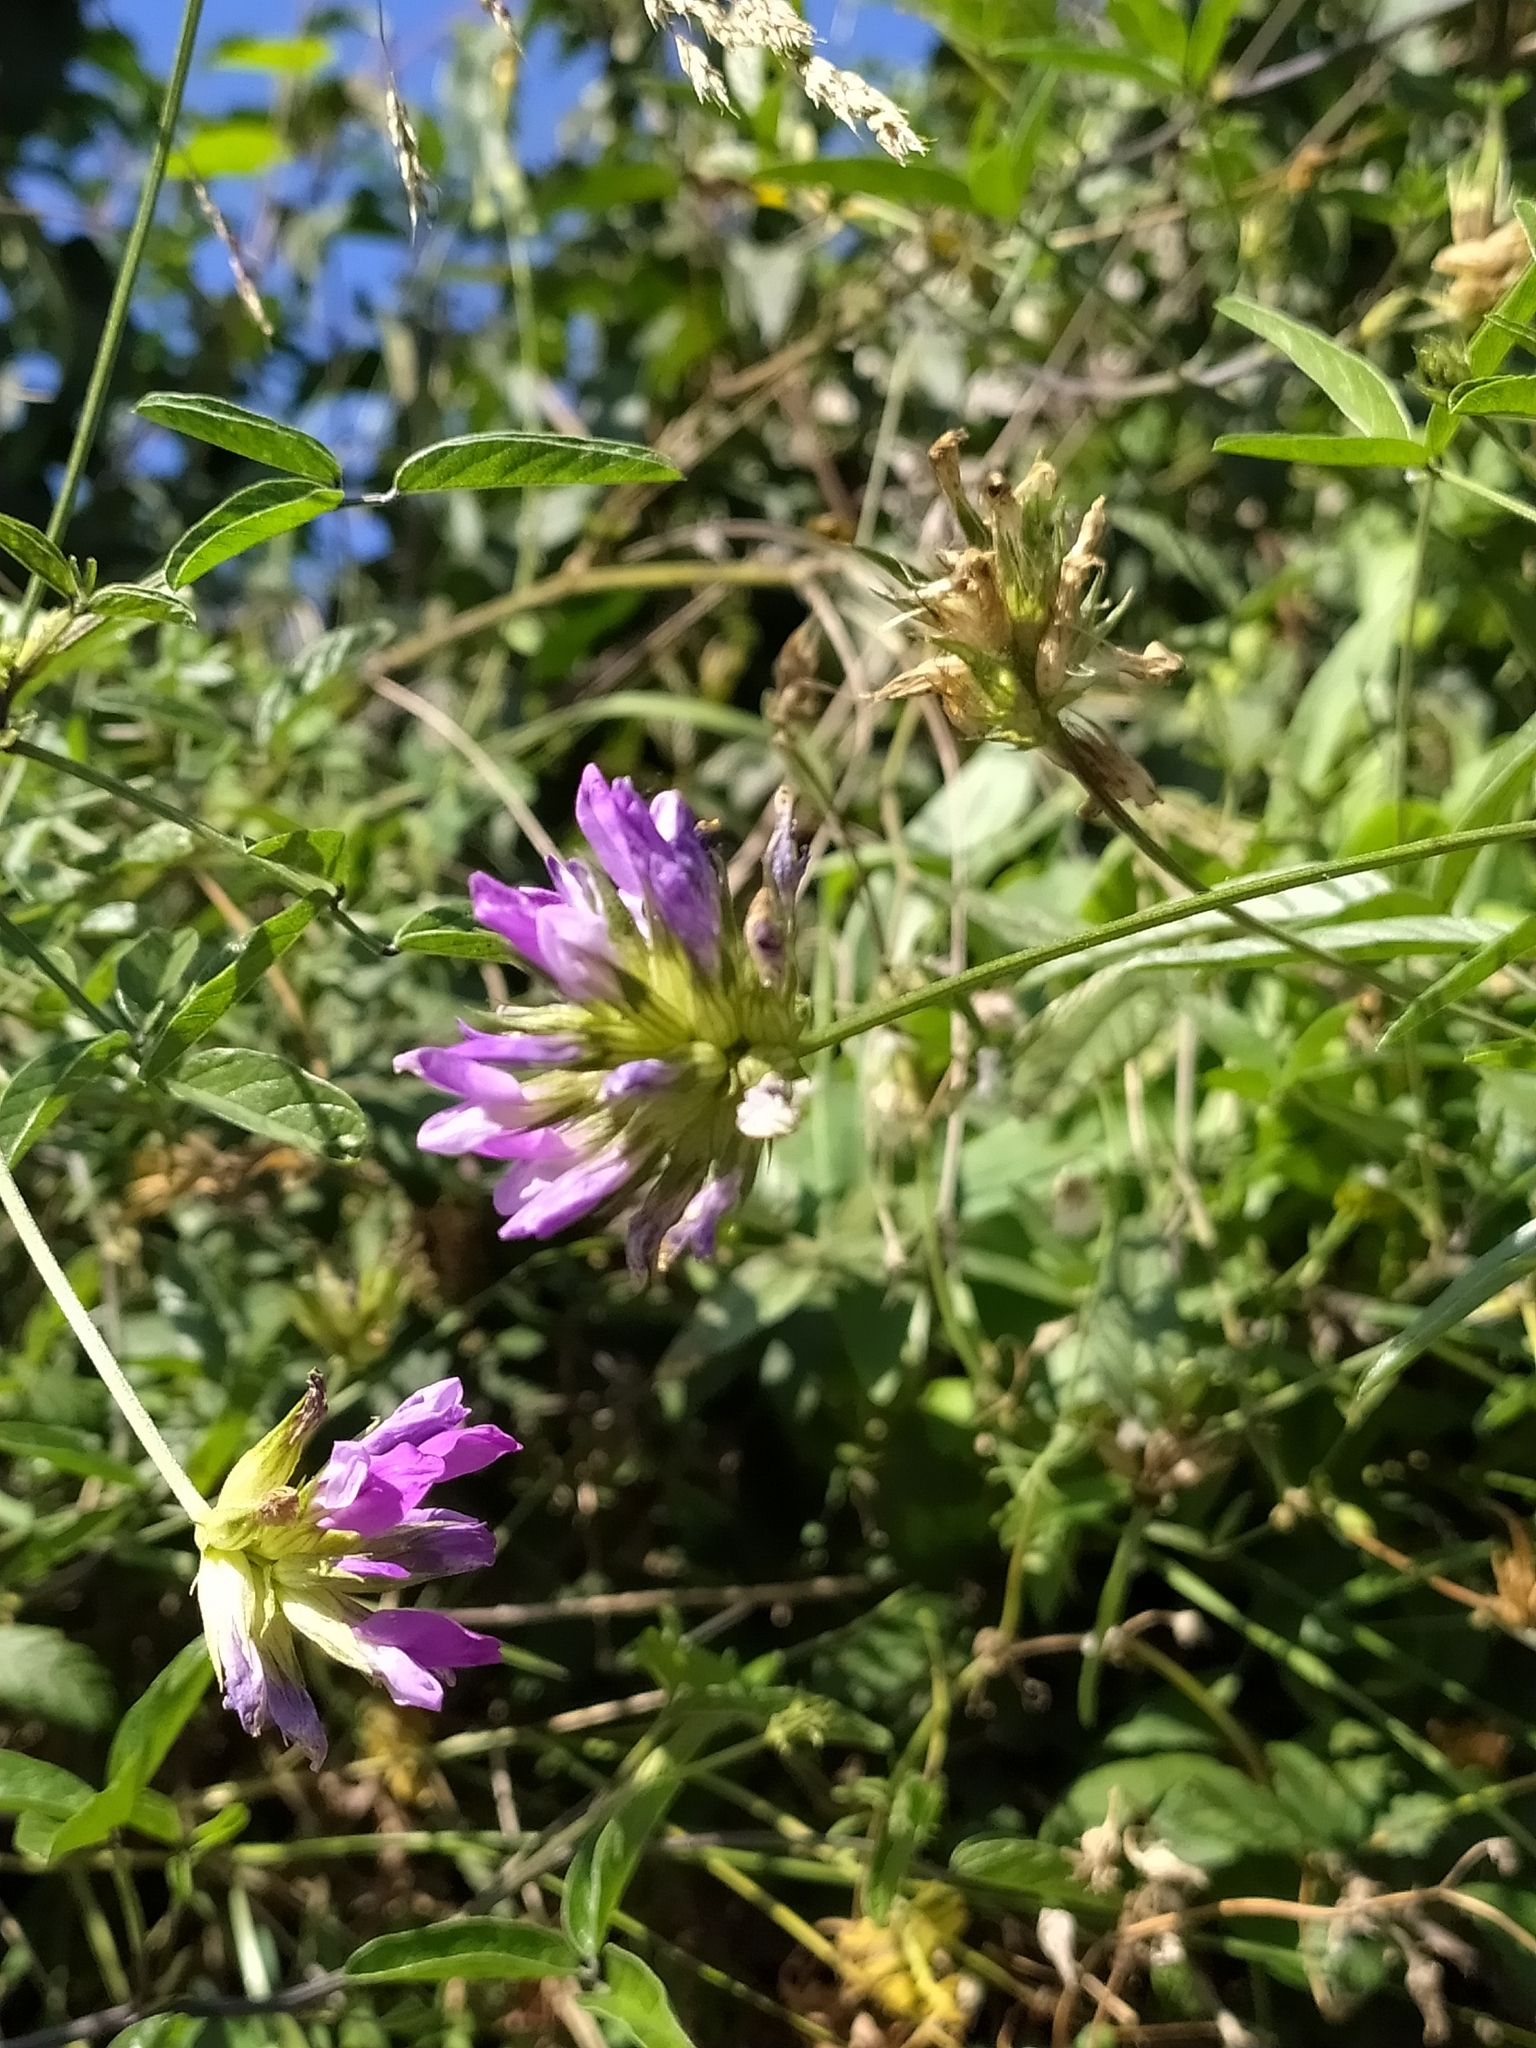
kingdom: Plantae
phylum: Tracheophyta
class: Magnoliopsida
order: Fabales
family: Fabaceae
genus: Bituminaria
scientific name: Bituminaria bituminosa
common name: Arabian pea
